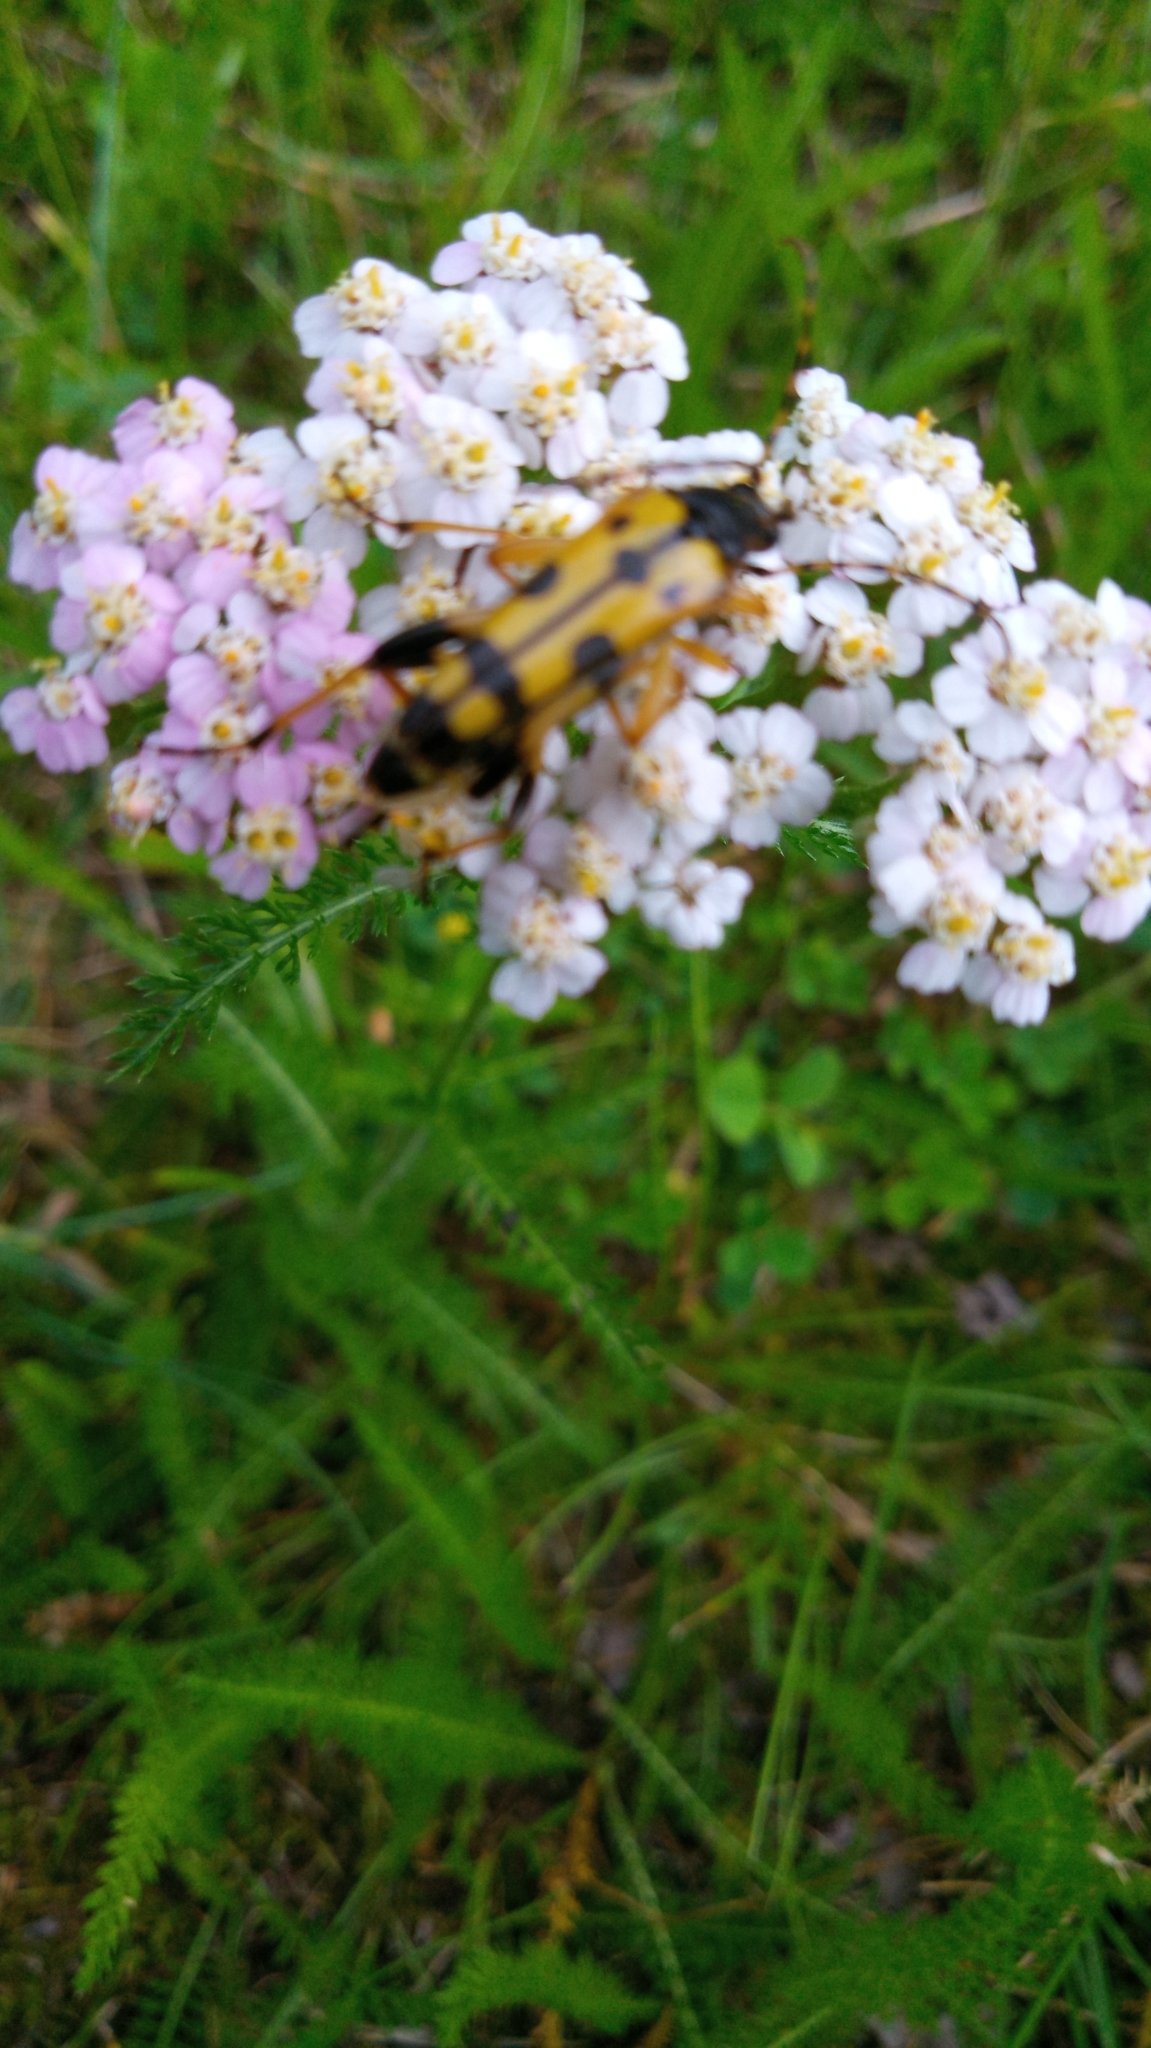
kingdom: Animalia
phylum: Arthropoda
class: Insecta
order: Coleoptera
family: Cerambycidae
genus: Rutpela
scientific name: Rutpela maculata
